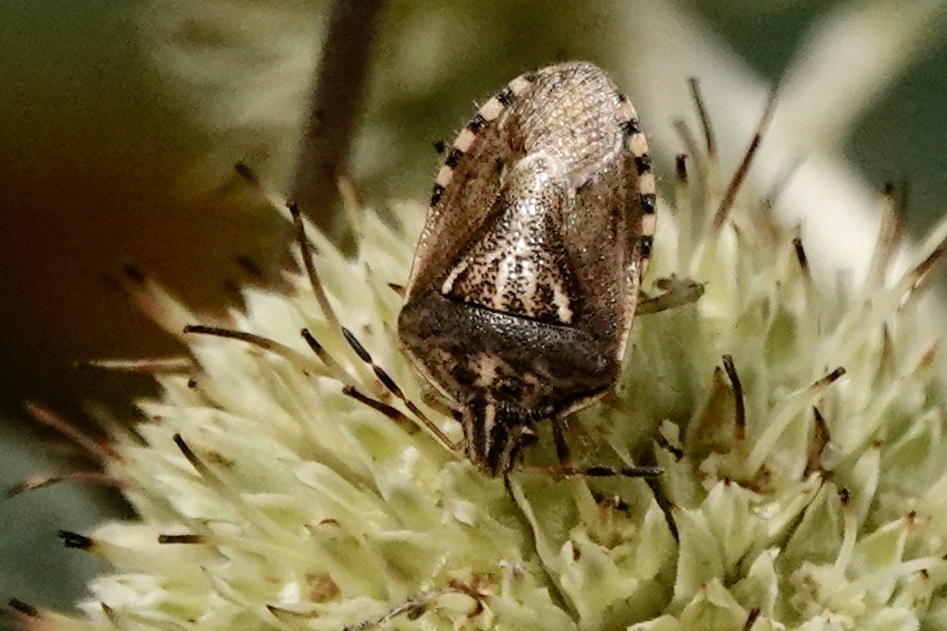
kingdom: Animalia
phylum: Arthropoda
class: Insecta
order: Hemiptera
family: Pentatomidae
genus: Trichopepla
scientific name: Trichopepla semivittata
